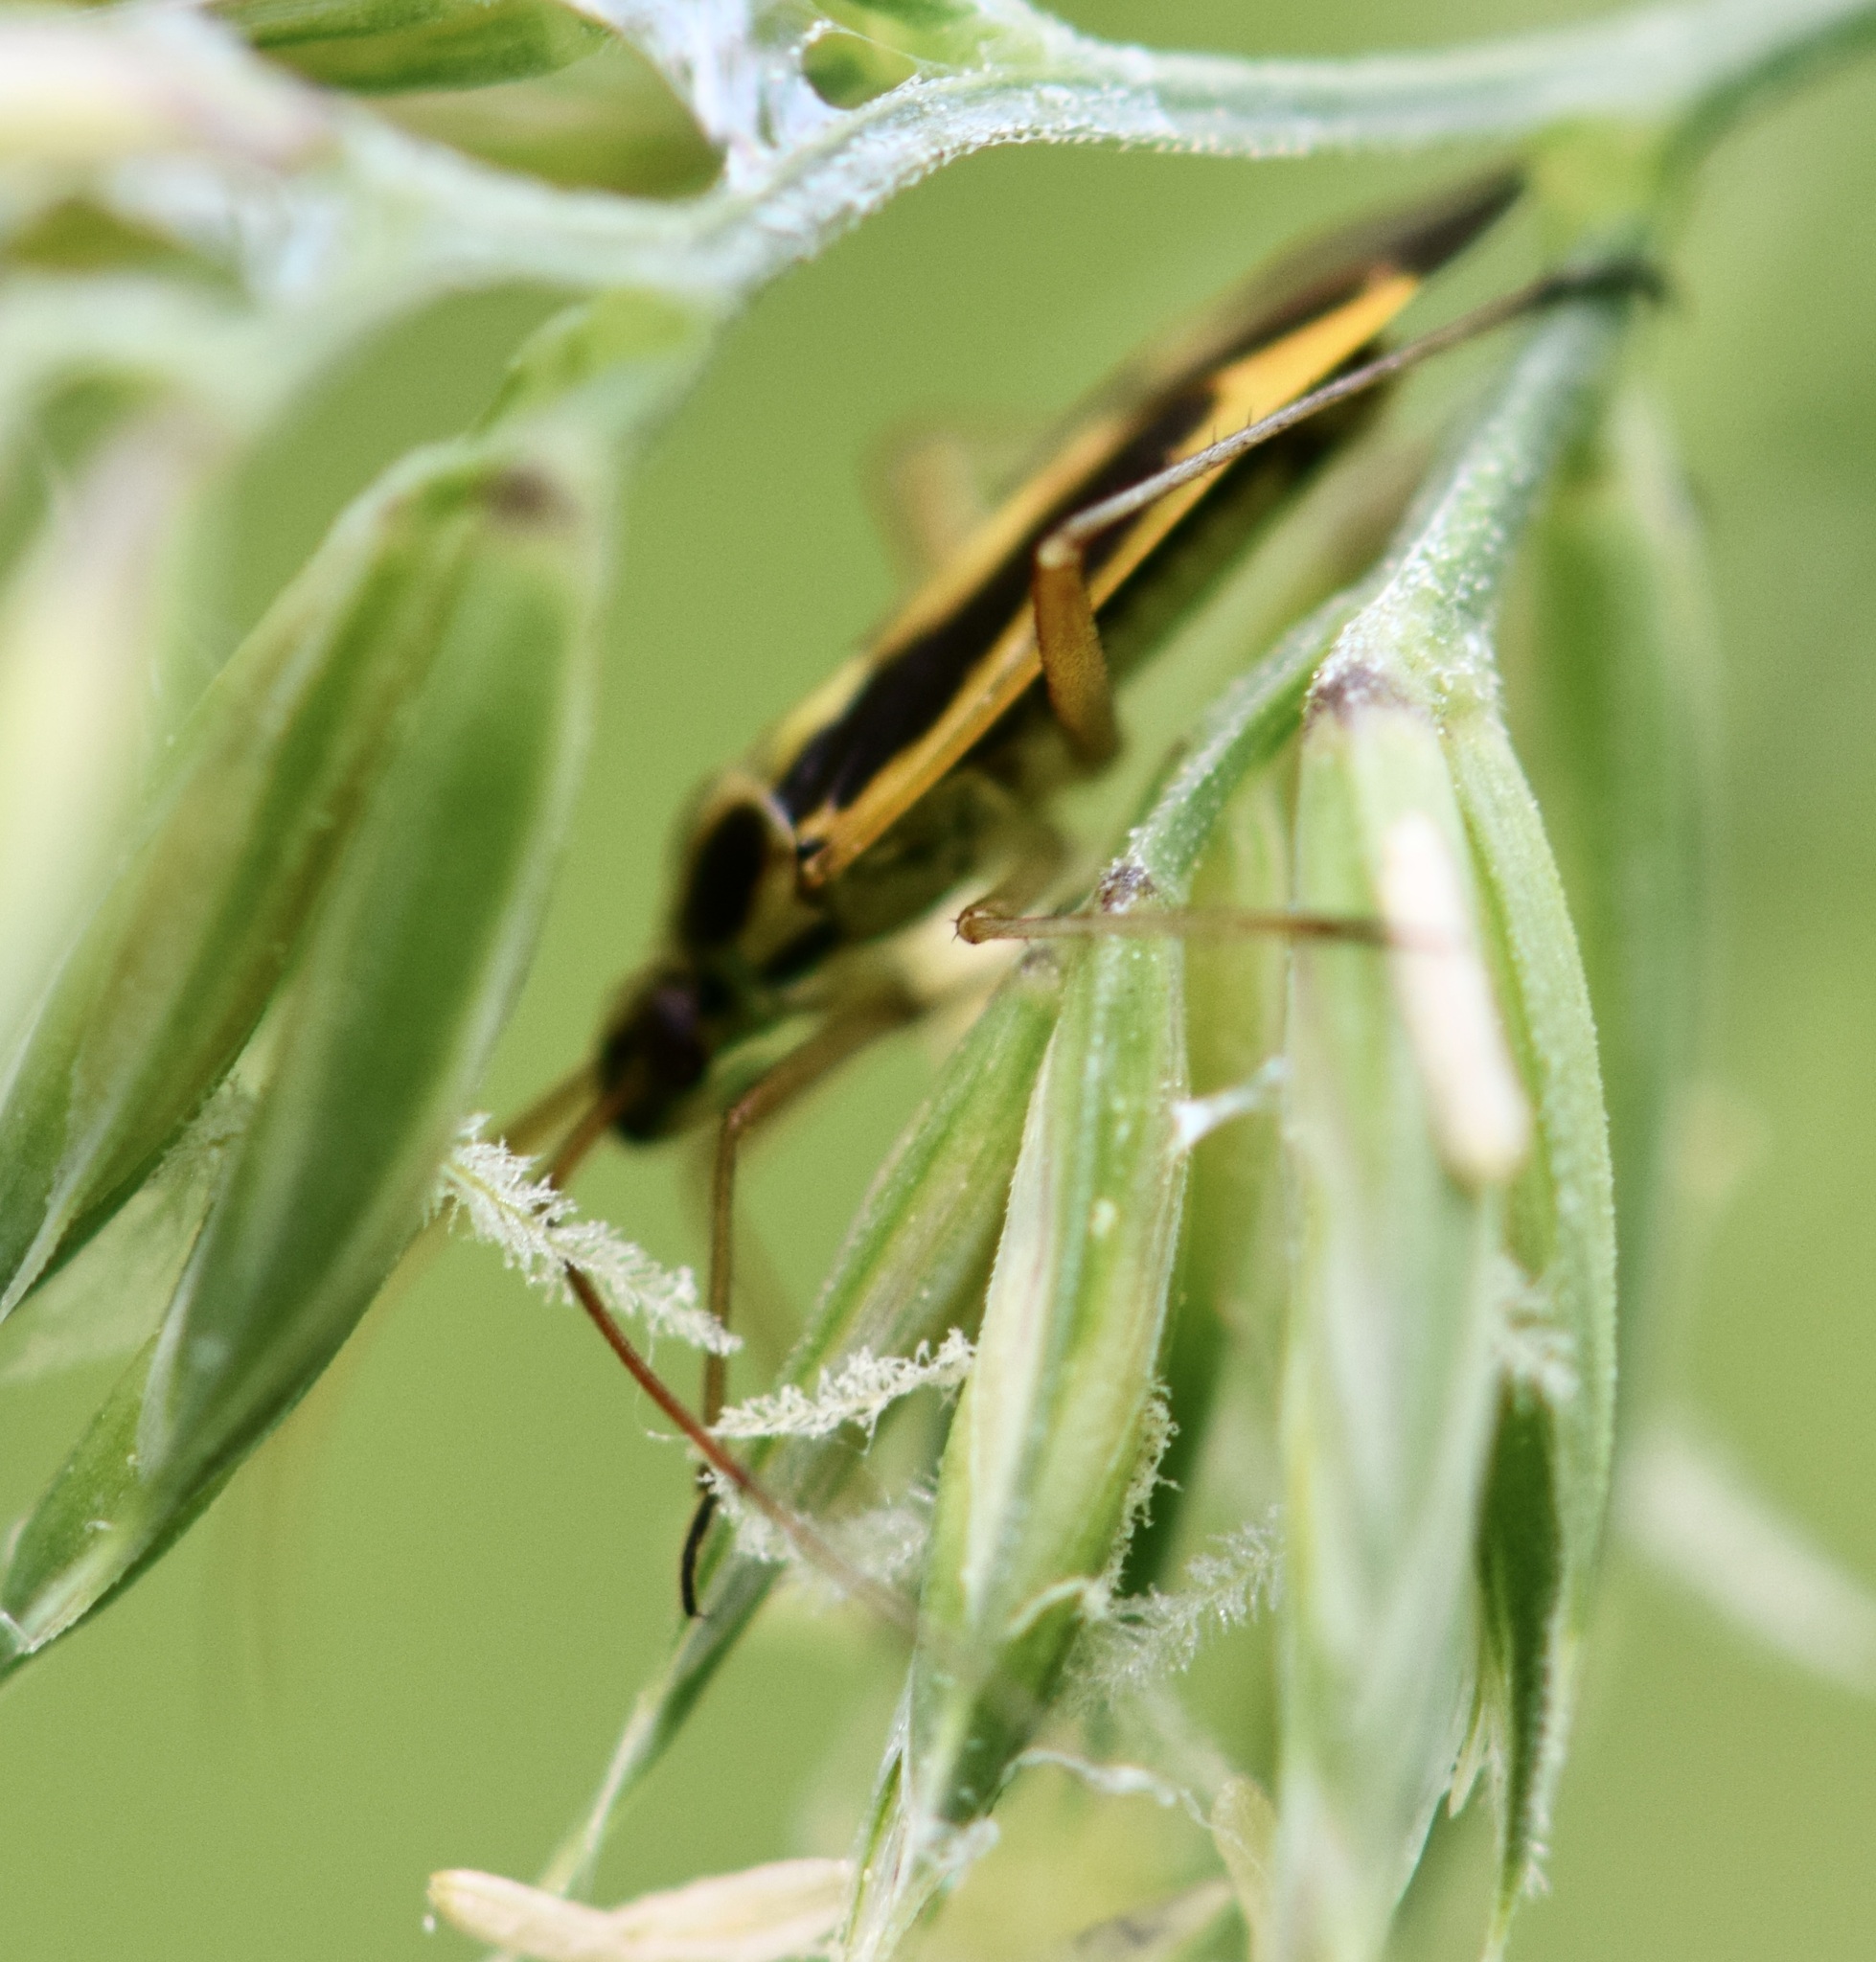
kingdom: Animalia
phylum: Arthropoda
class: Insecta
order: Hemiptera
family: Miridae
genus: Stenotus
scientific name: Stenotus binotatus
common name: Plant bug
